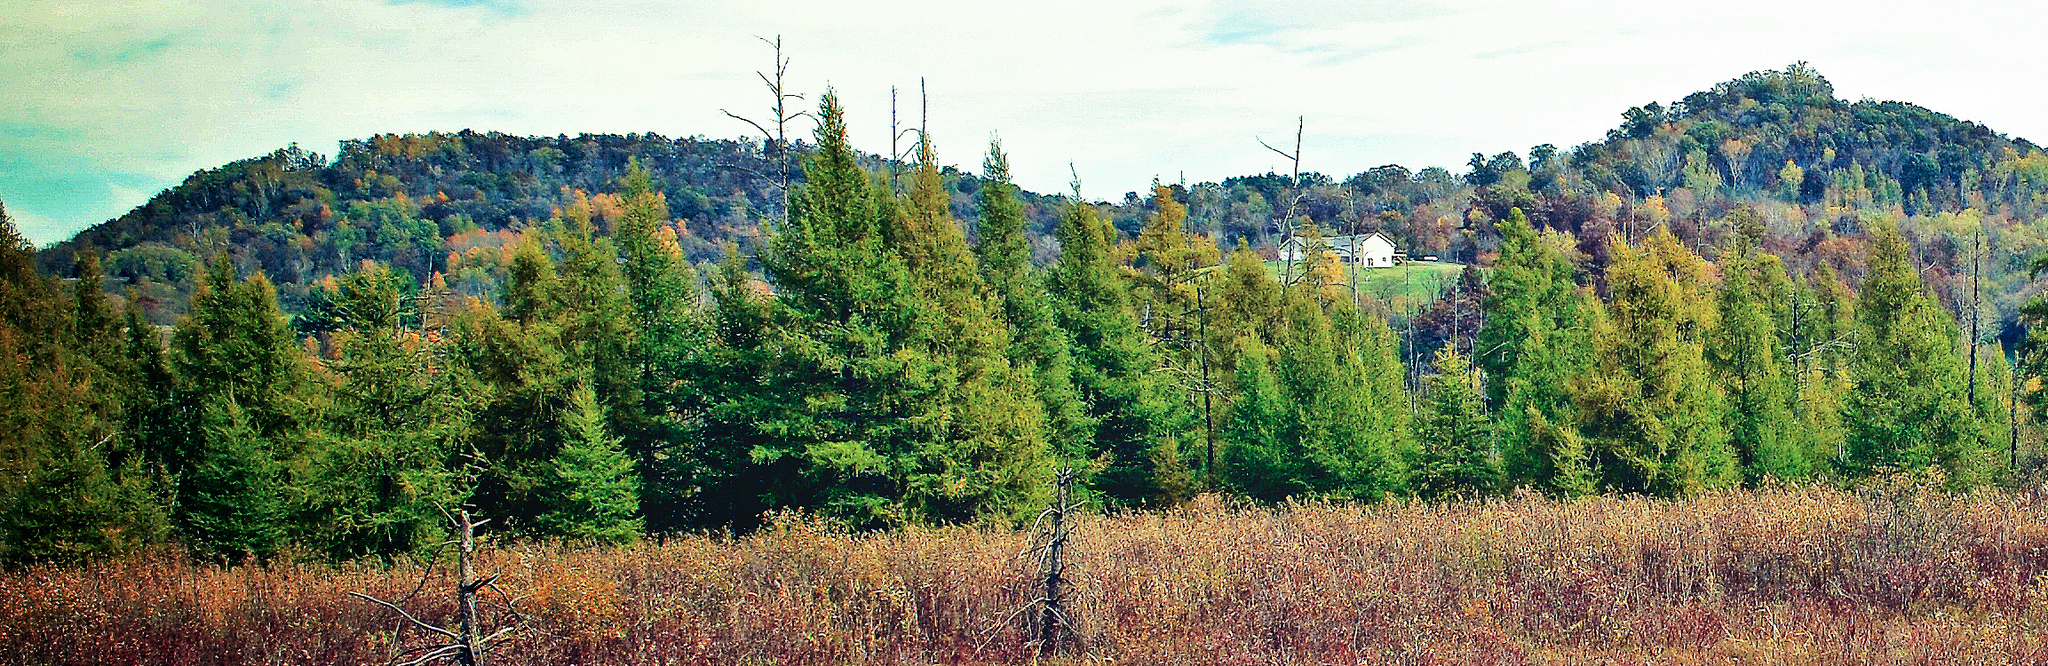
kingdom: Plantae
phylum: Tracheophyta
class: Pinopsida
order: Pinales
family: Pinaceae
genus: Larix
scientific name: Larix laricina
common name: American larch
